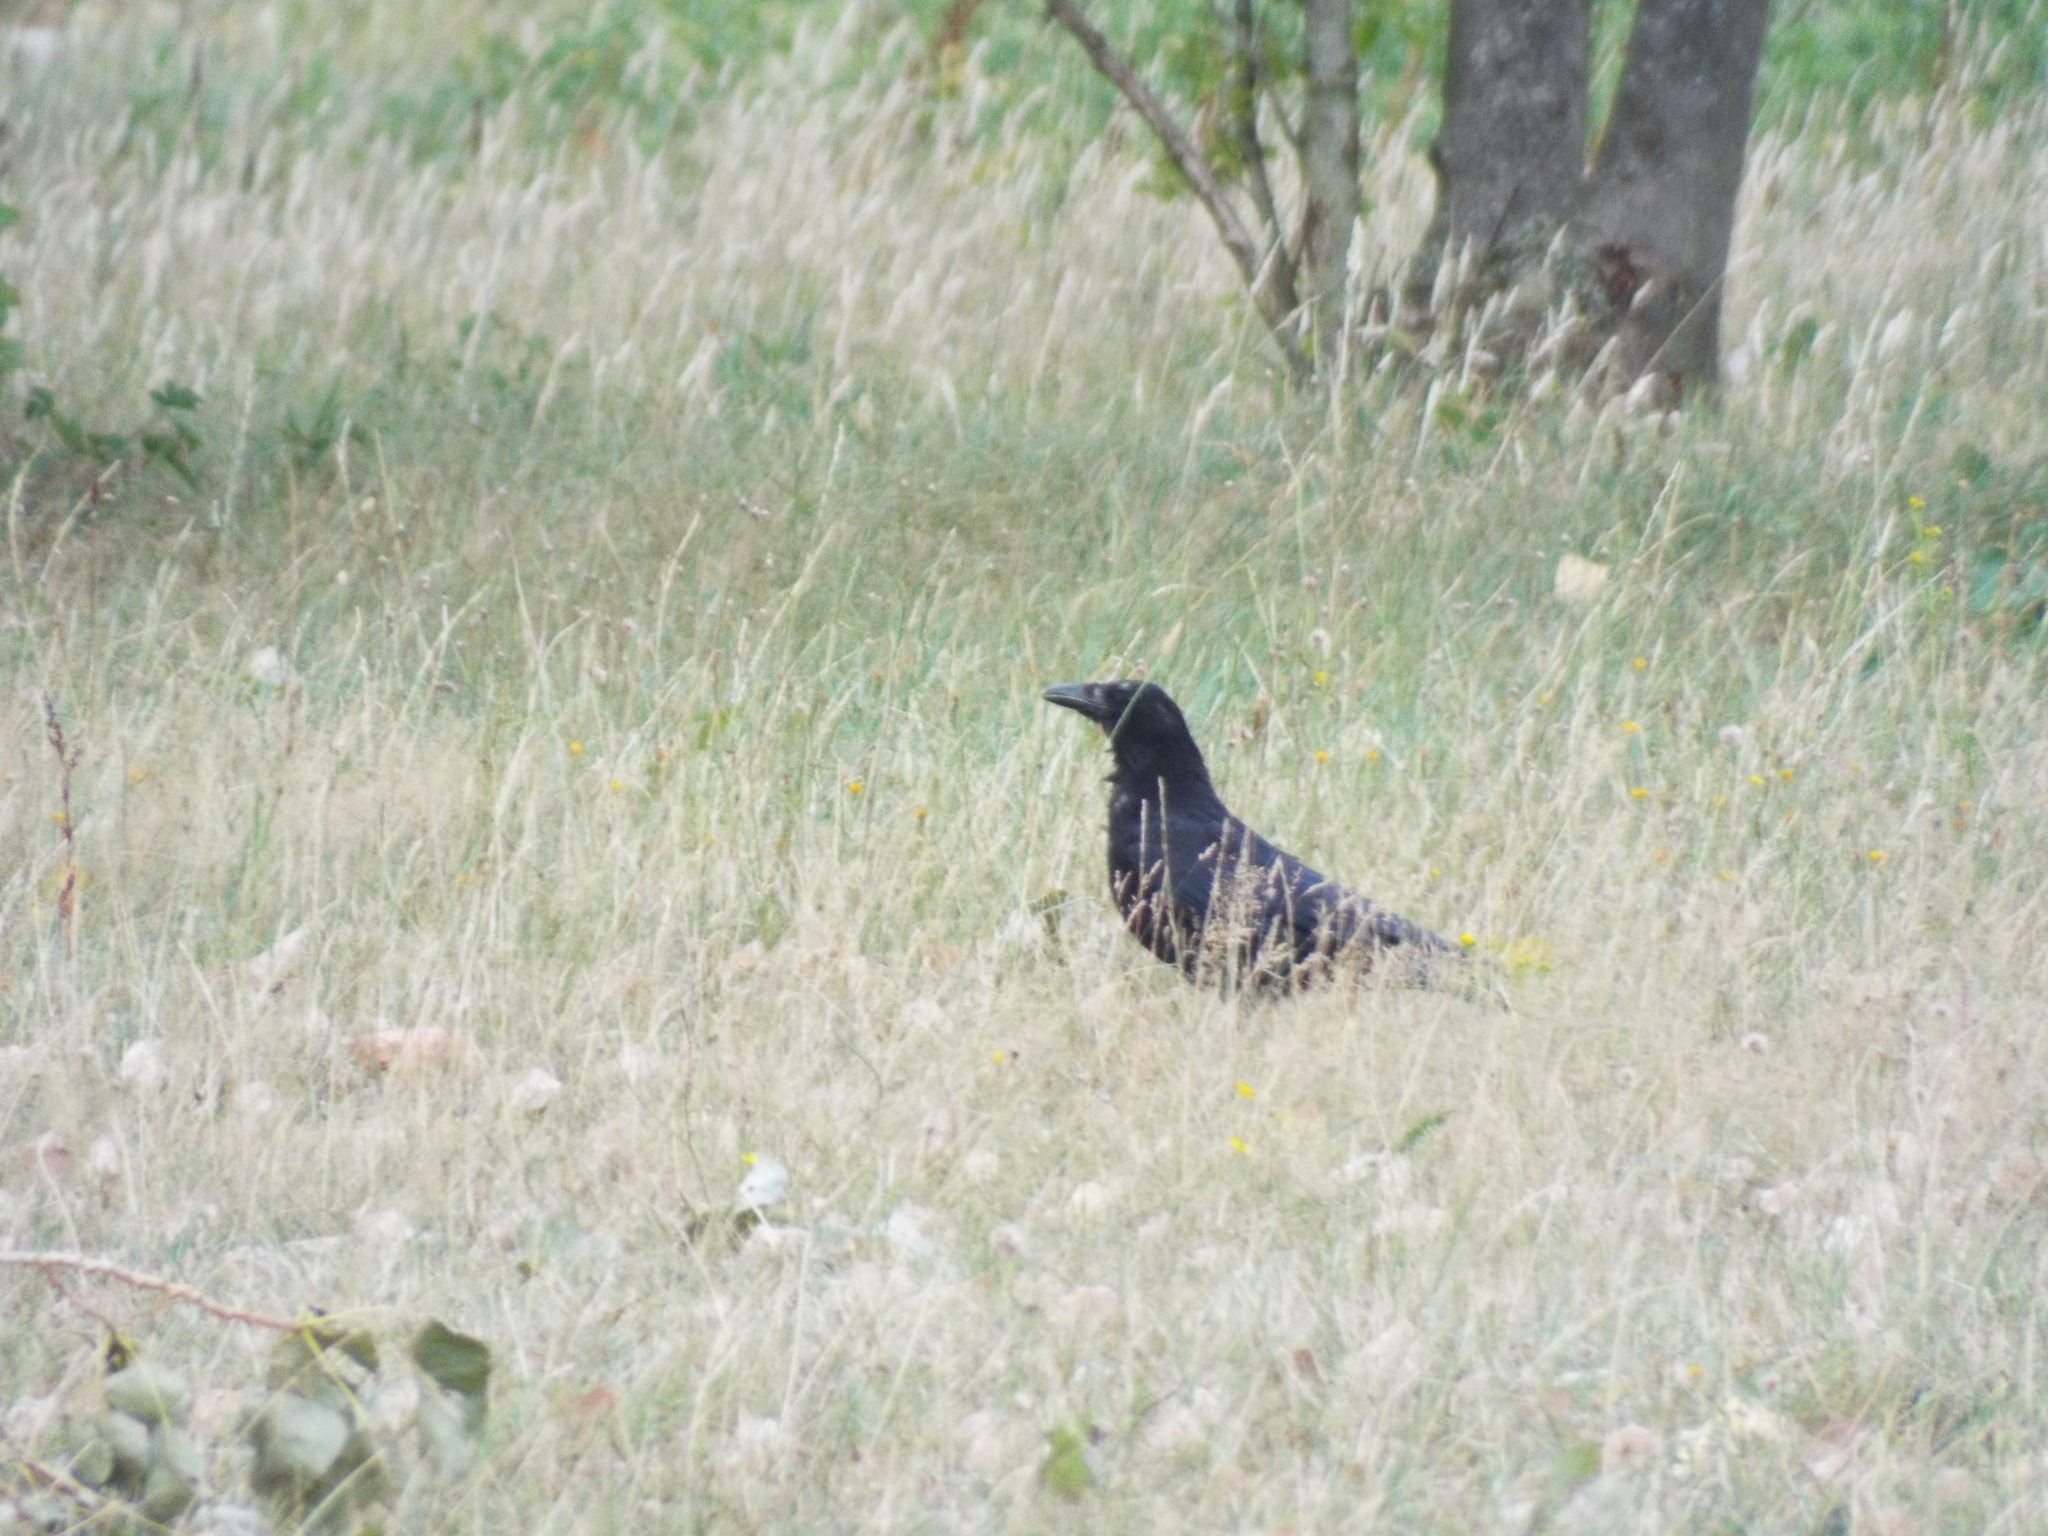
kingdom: Animalia
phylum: Chordata
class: Aves
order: Passeriformes
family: Corvidae
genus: Corvus
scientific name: Corvus corone
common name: Carrion crow
